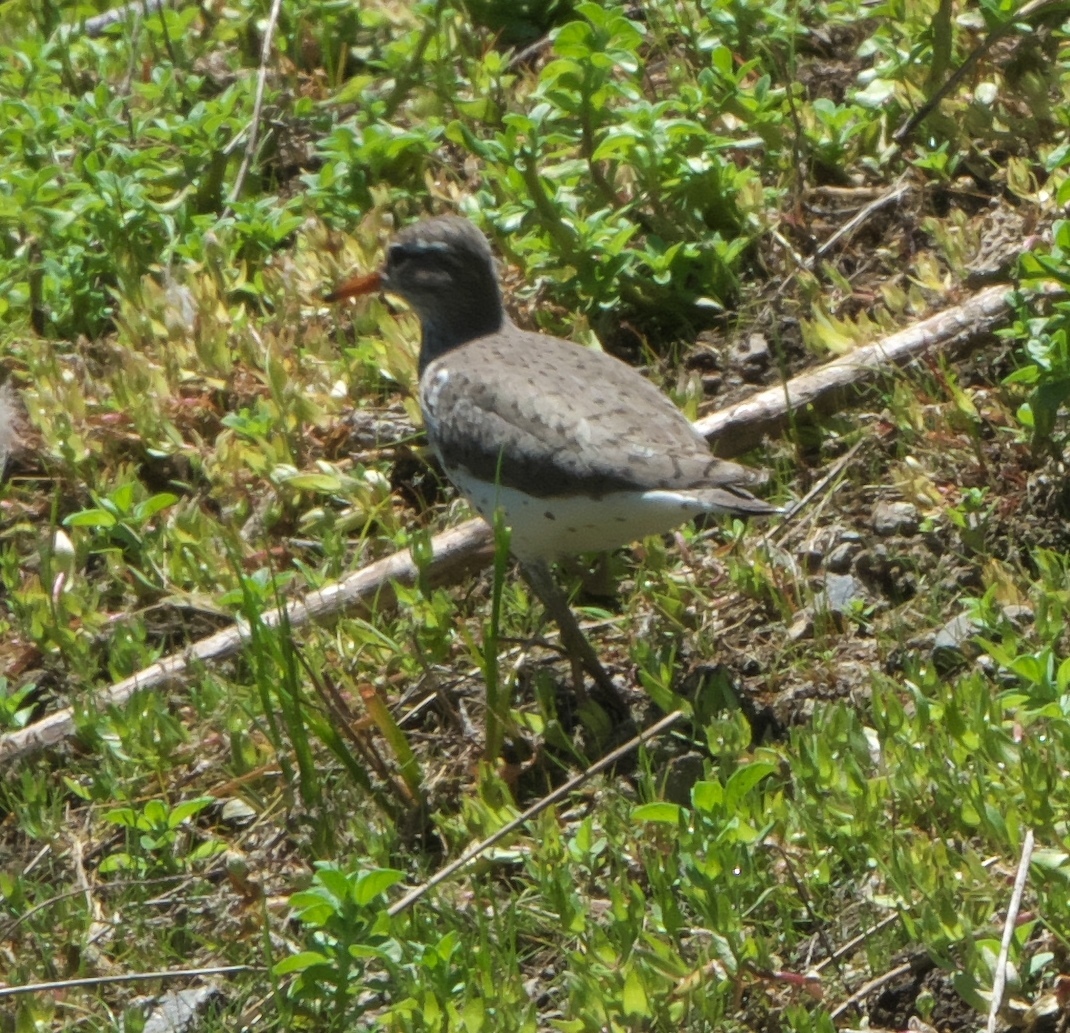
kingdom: Animalia
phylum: Chordata
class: Aves
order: Charadriiformes
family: Scolopacidae
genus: Actitis
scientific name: Actitis macularius
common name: Spotted sandpiper
